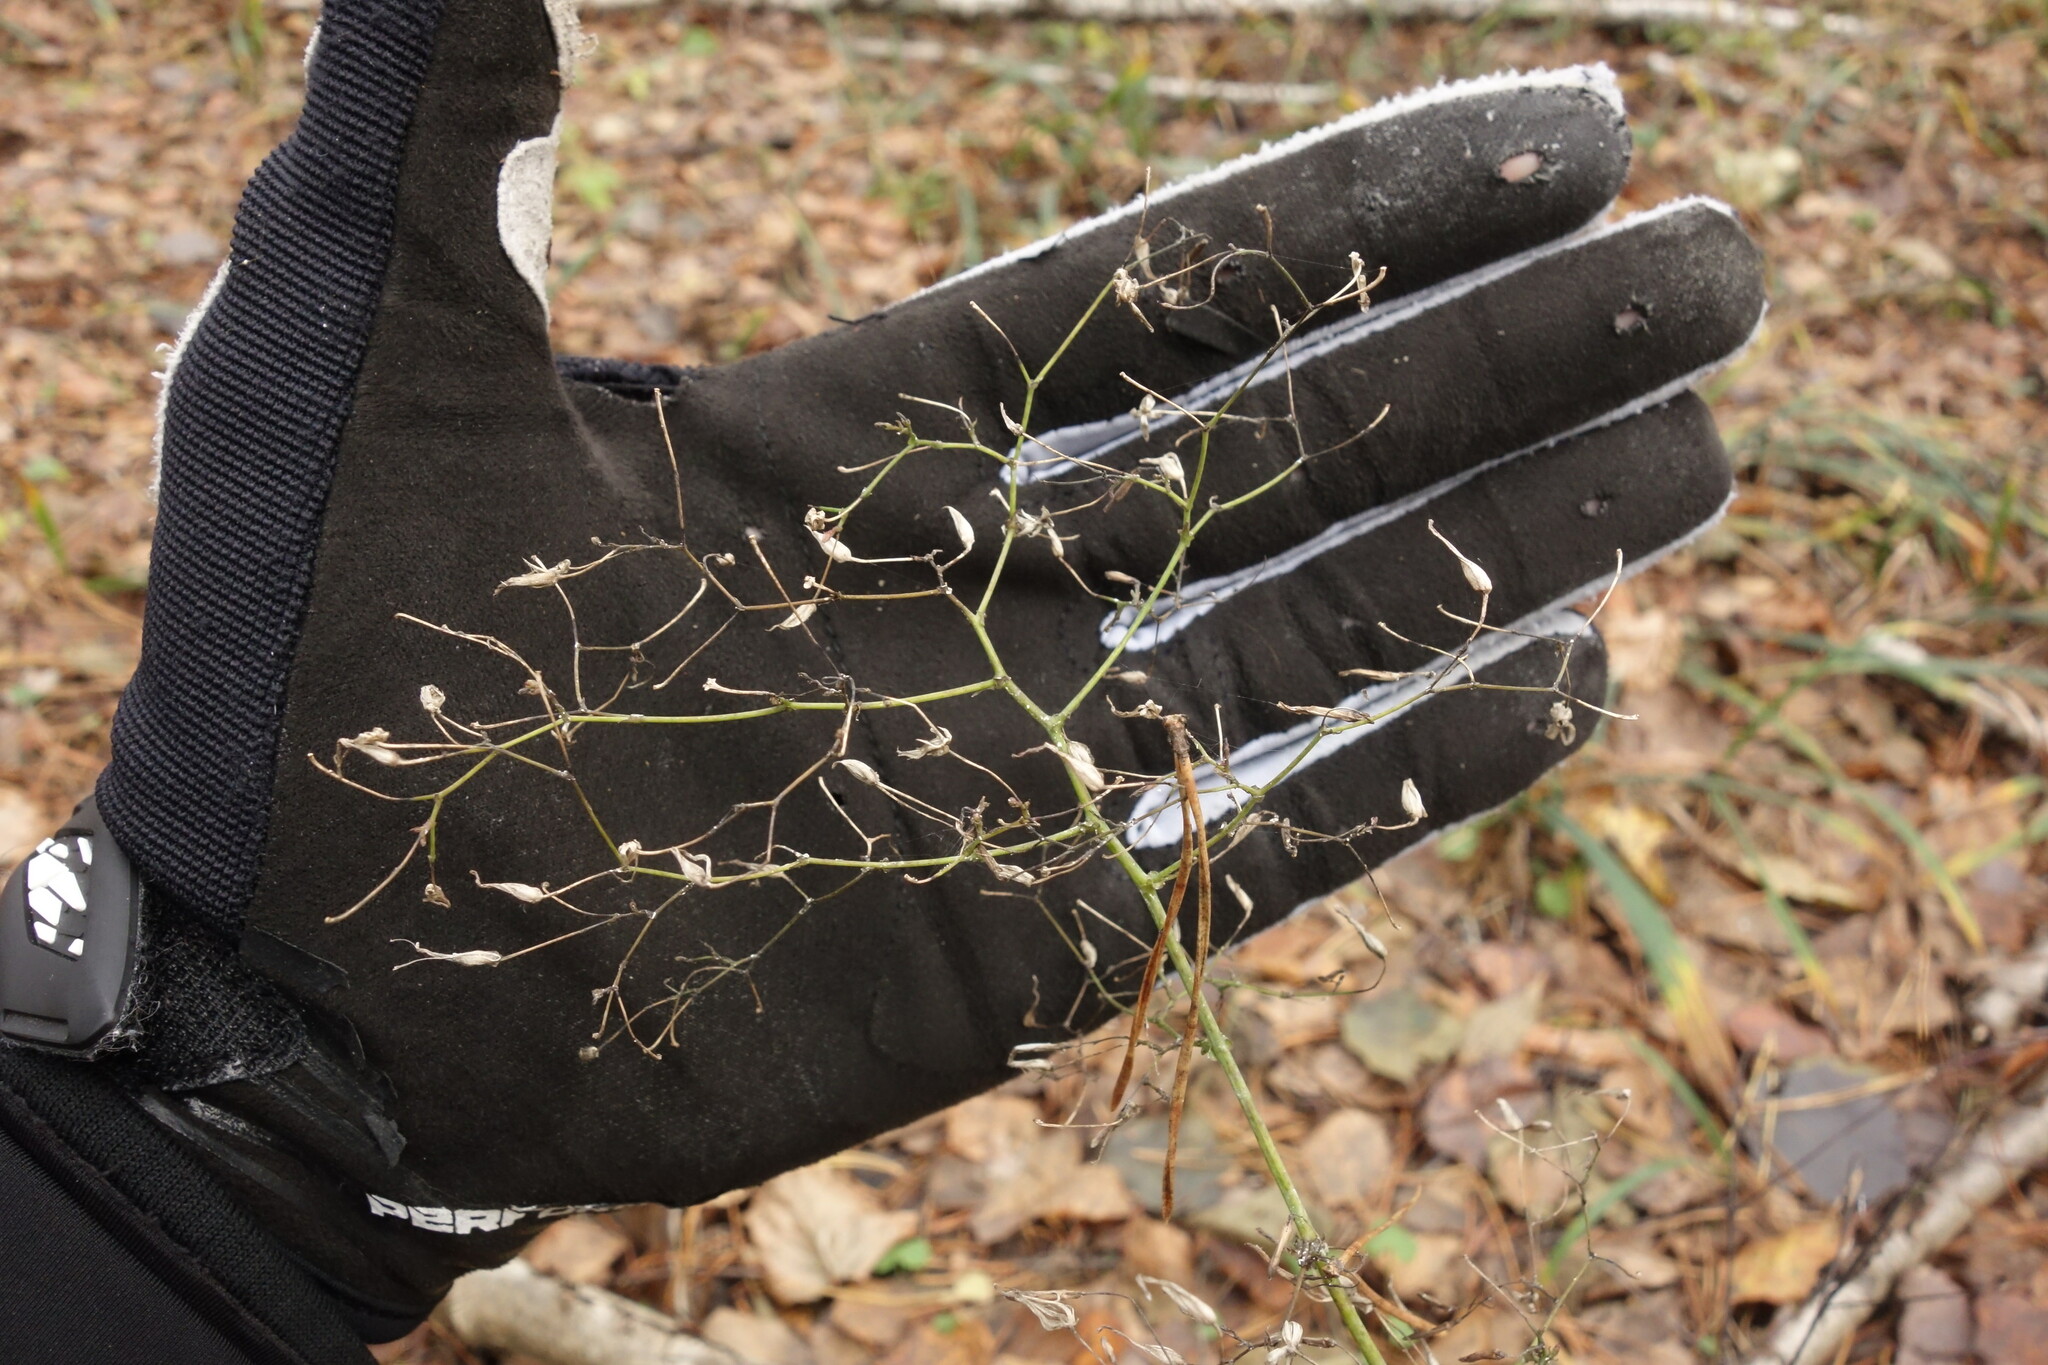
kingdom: Plantae
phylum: Tracheophyta
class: Magnoliopsida
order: Asterales
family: Asteraceae
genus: Mycelis
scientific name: Mycelis muralis
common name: Wall lettuce
